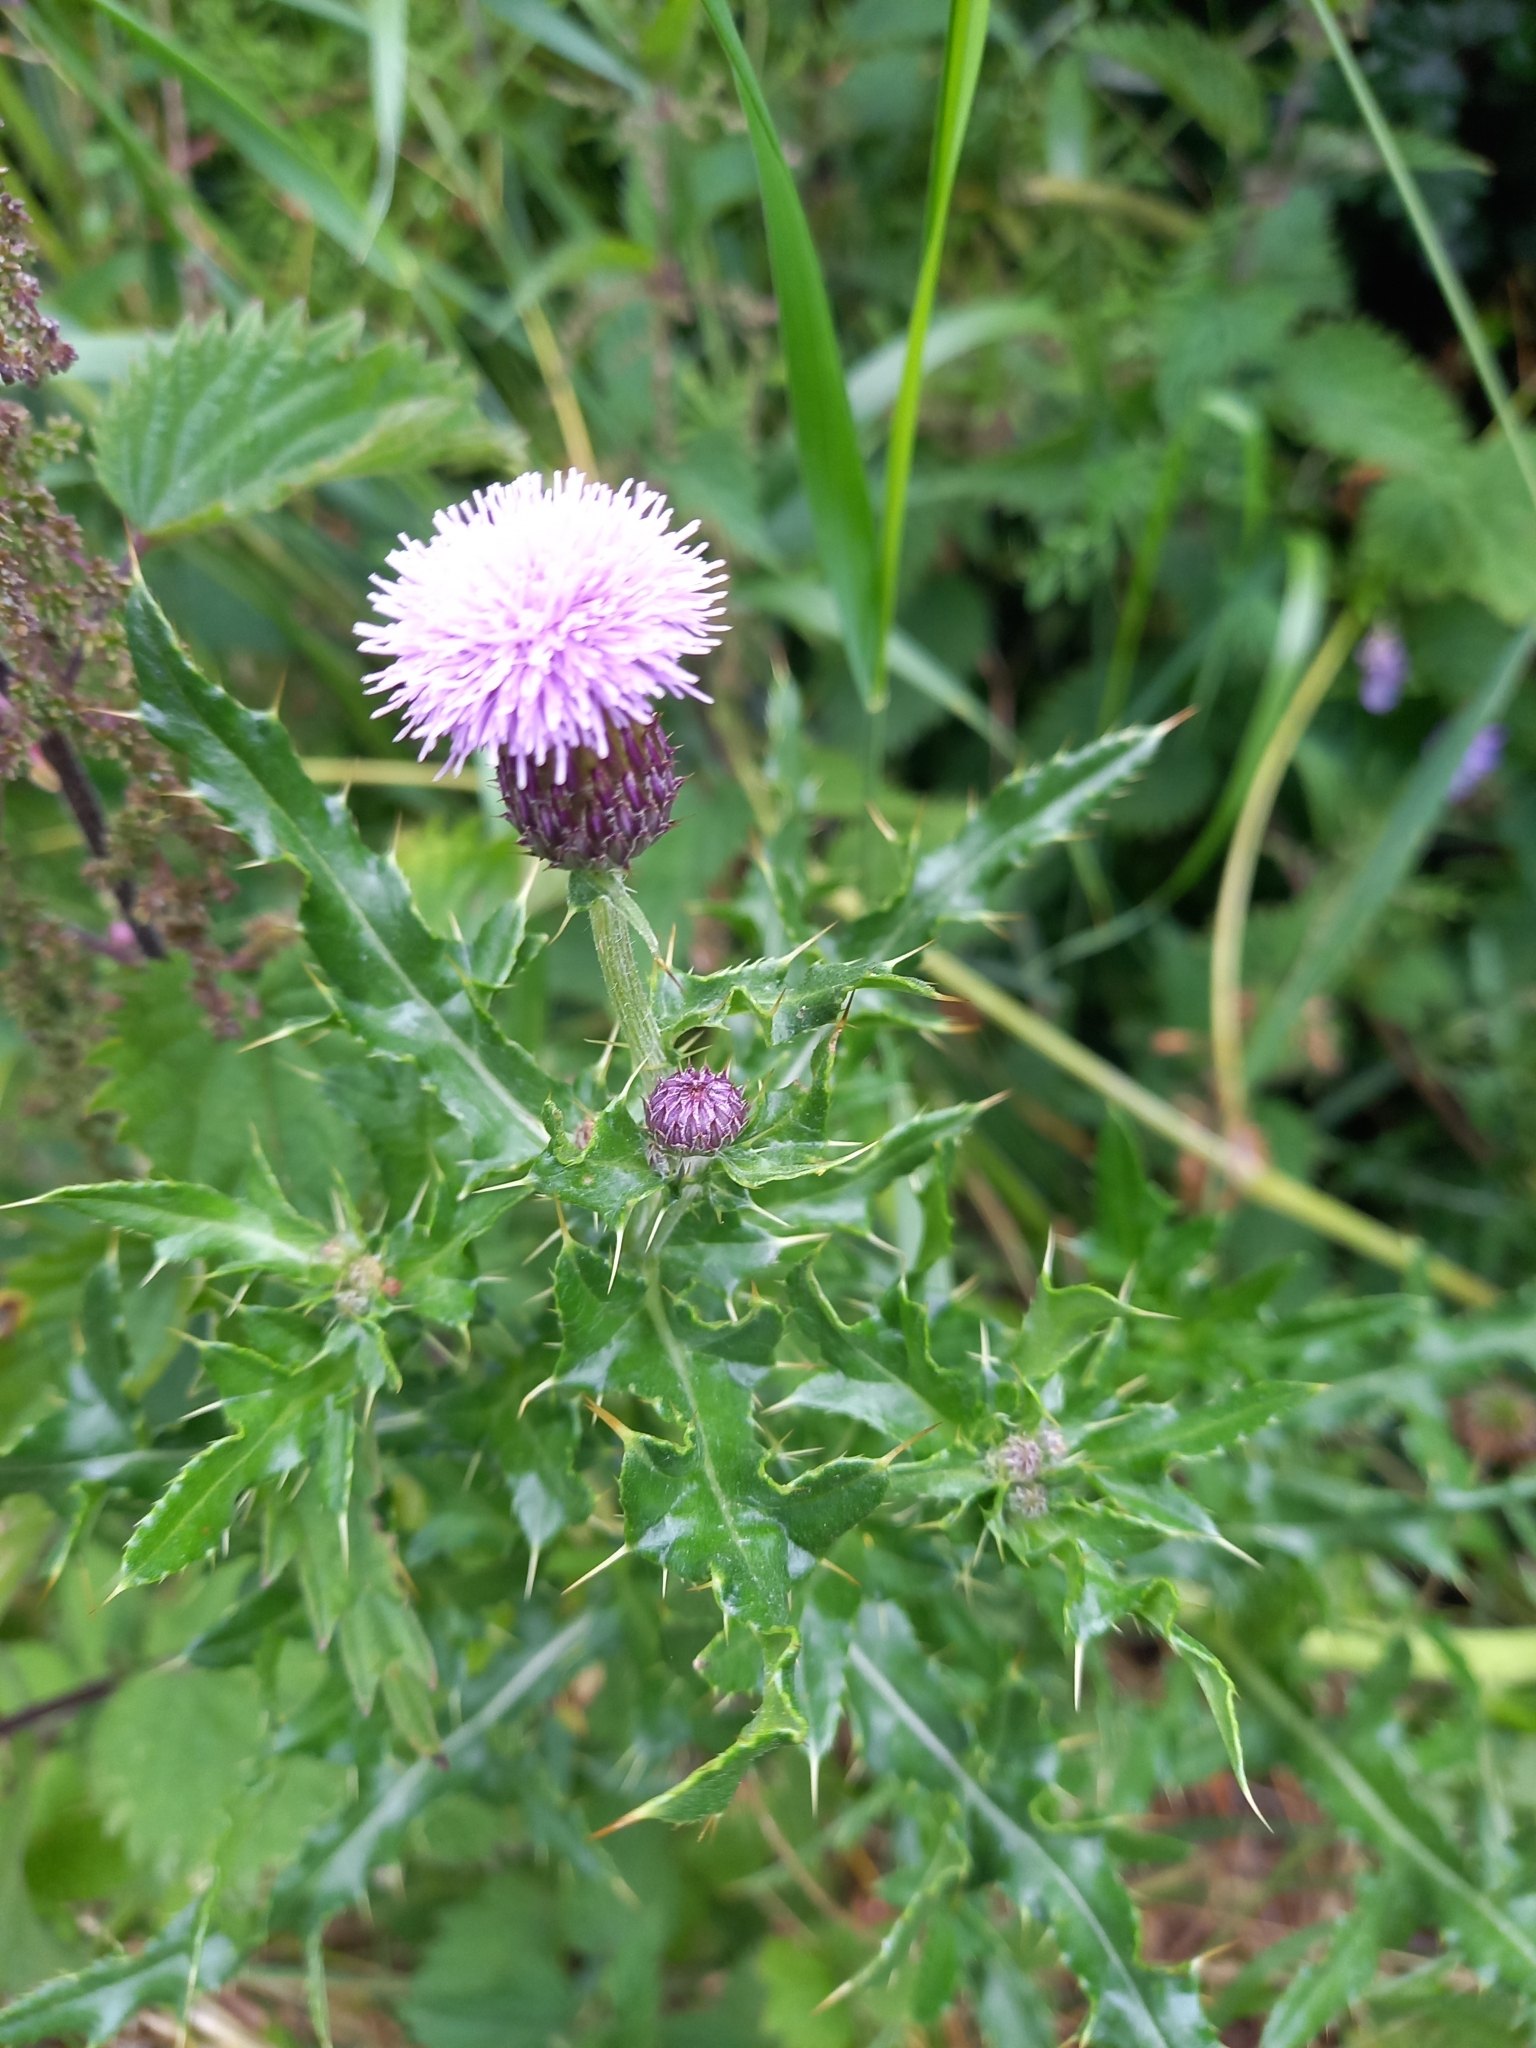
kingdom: Plantae
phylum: Tracheophyta
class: Magnoliopsida
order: Asterales
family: Asteraceae
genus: Cirsium
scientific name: Cirsium arvense
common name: Creeping thistle
